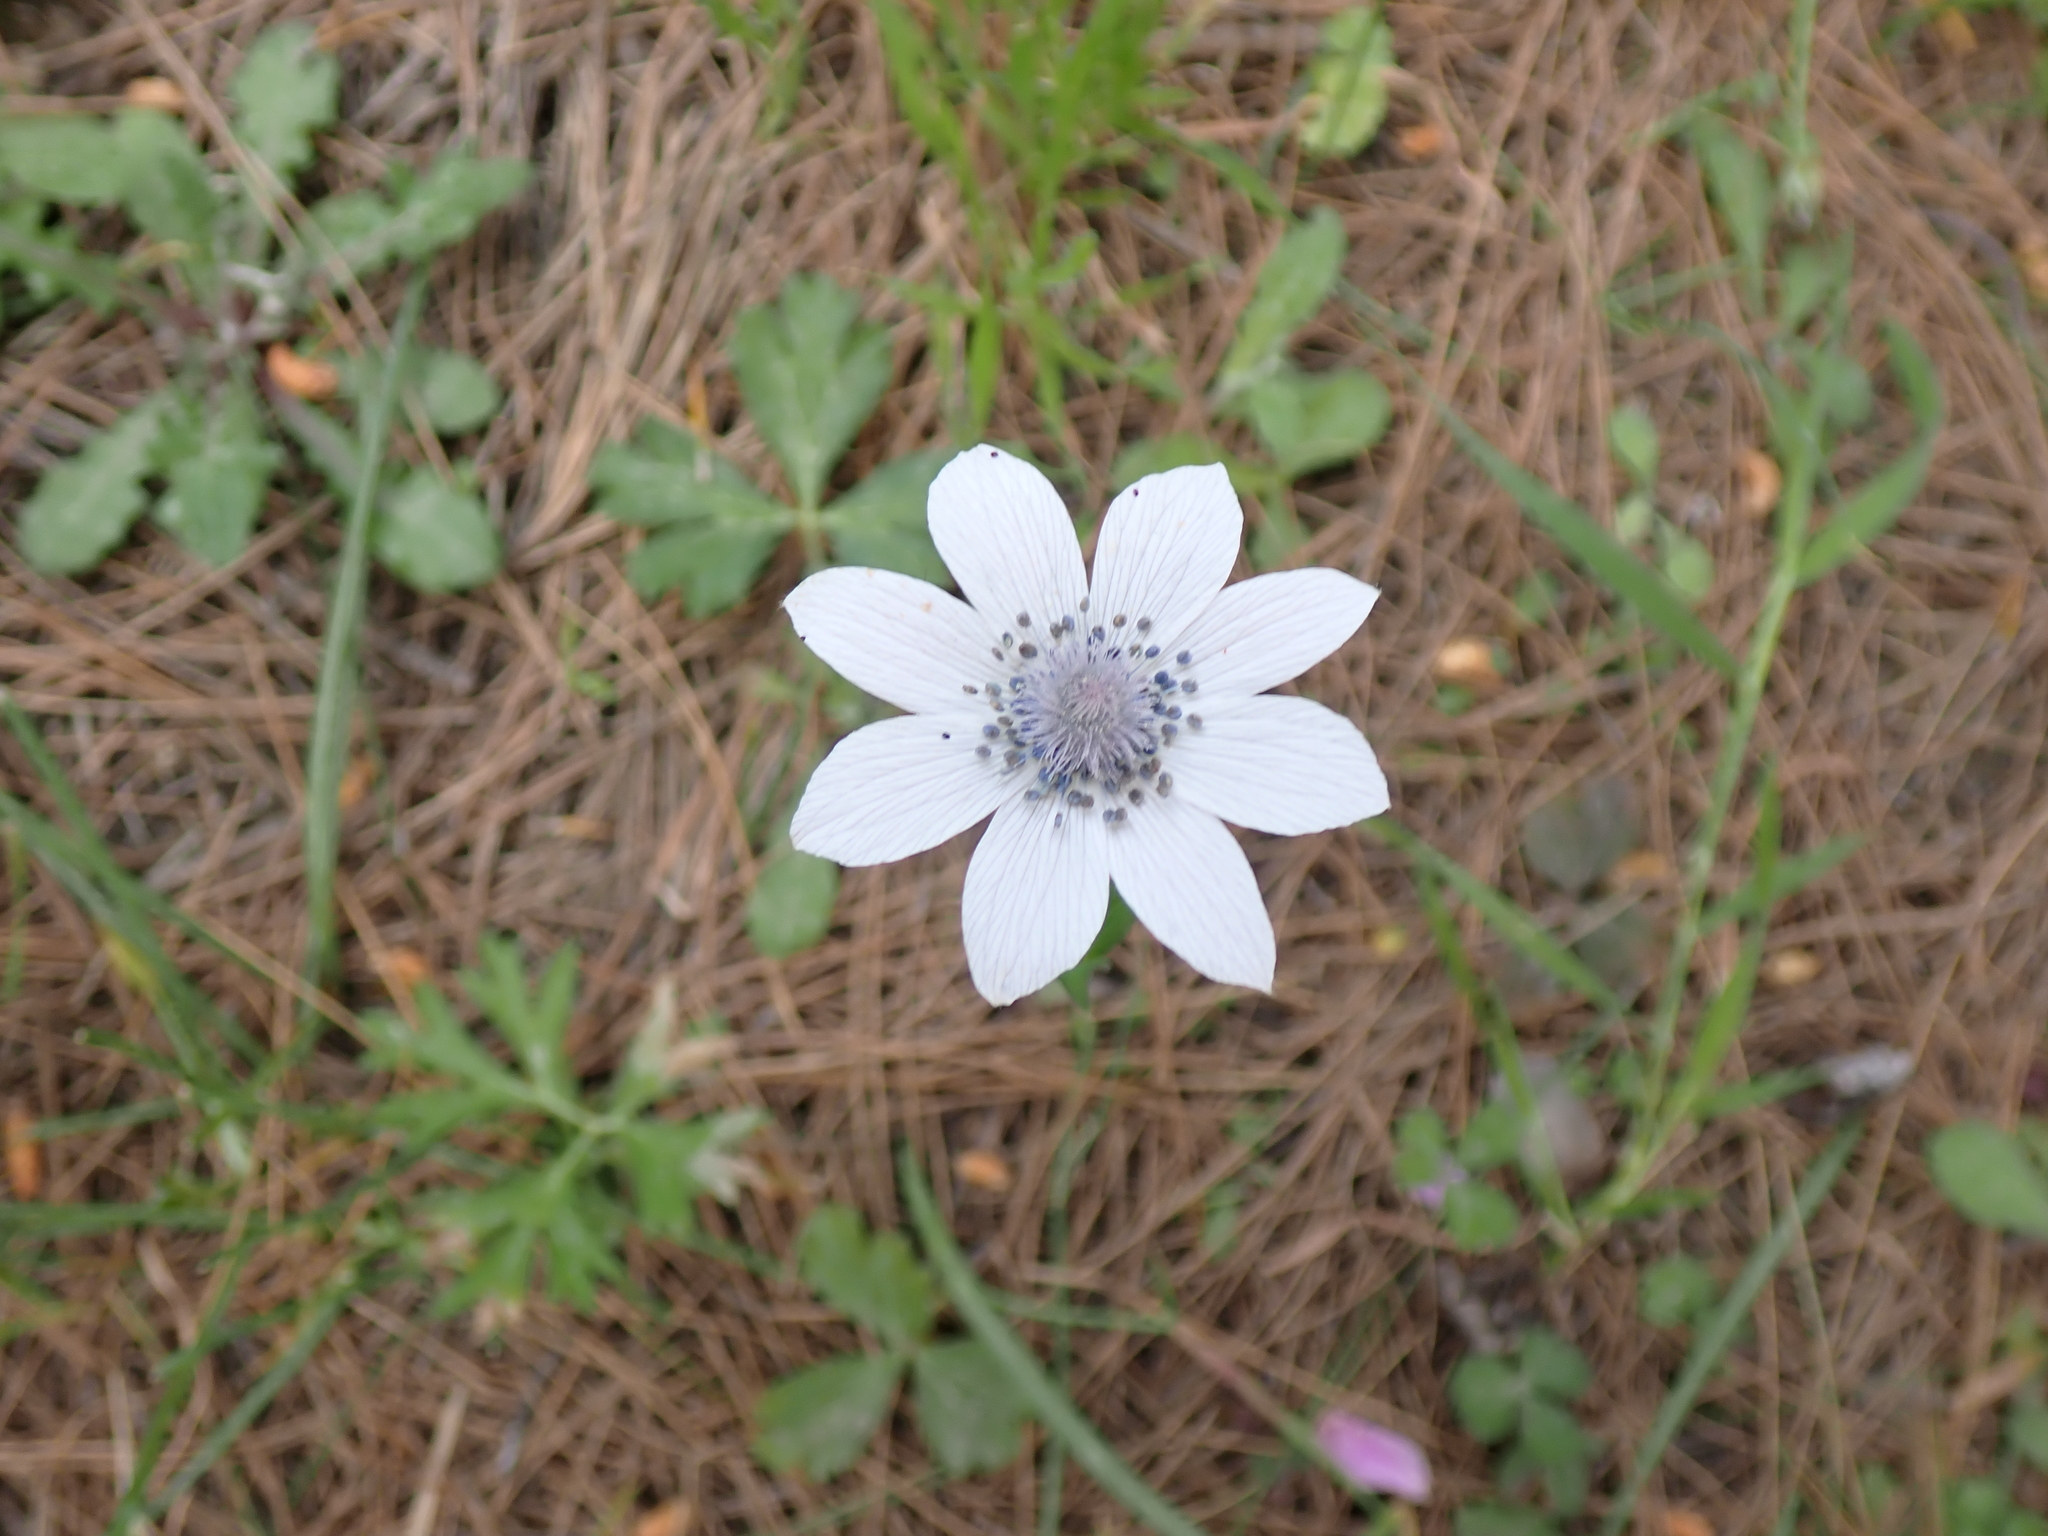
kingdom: Plantae
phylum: Tracheophyta
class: Magnoliopsida
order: Ranunculales
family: Ranunculaceae
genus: Anemone
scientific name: Anemone pavonina
